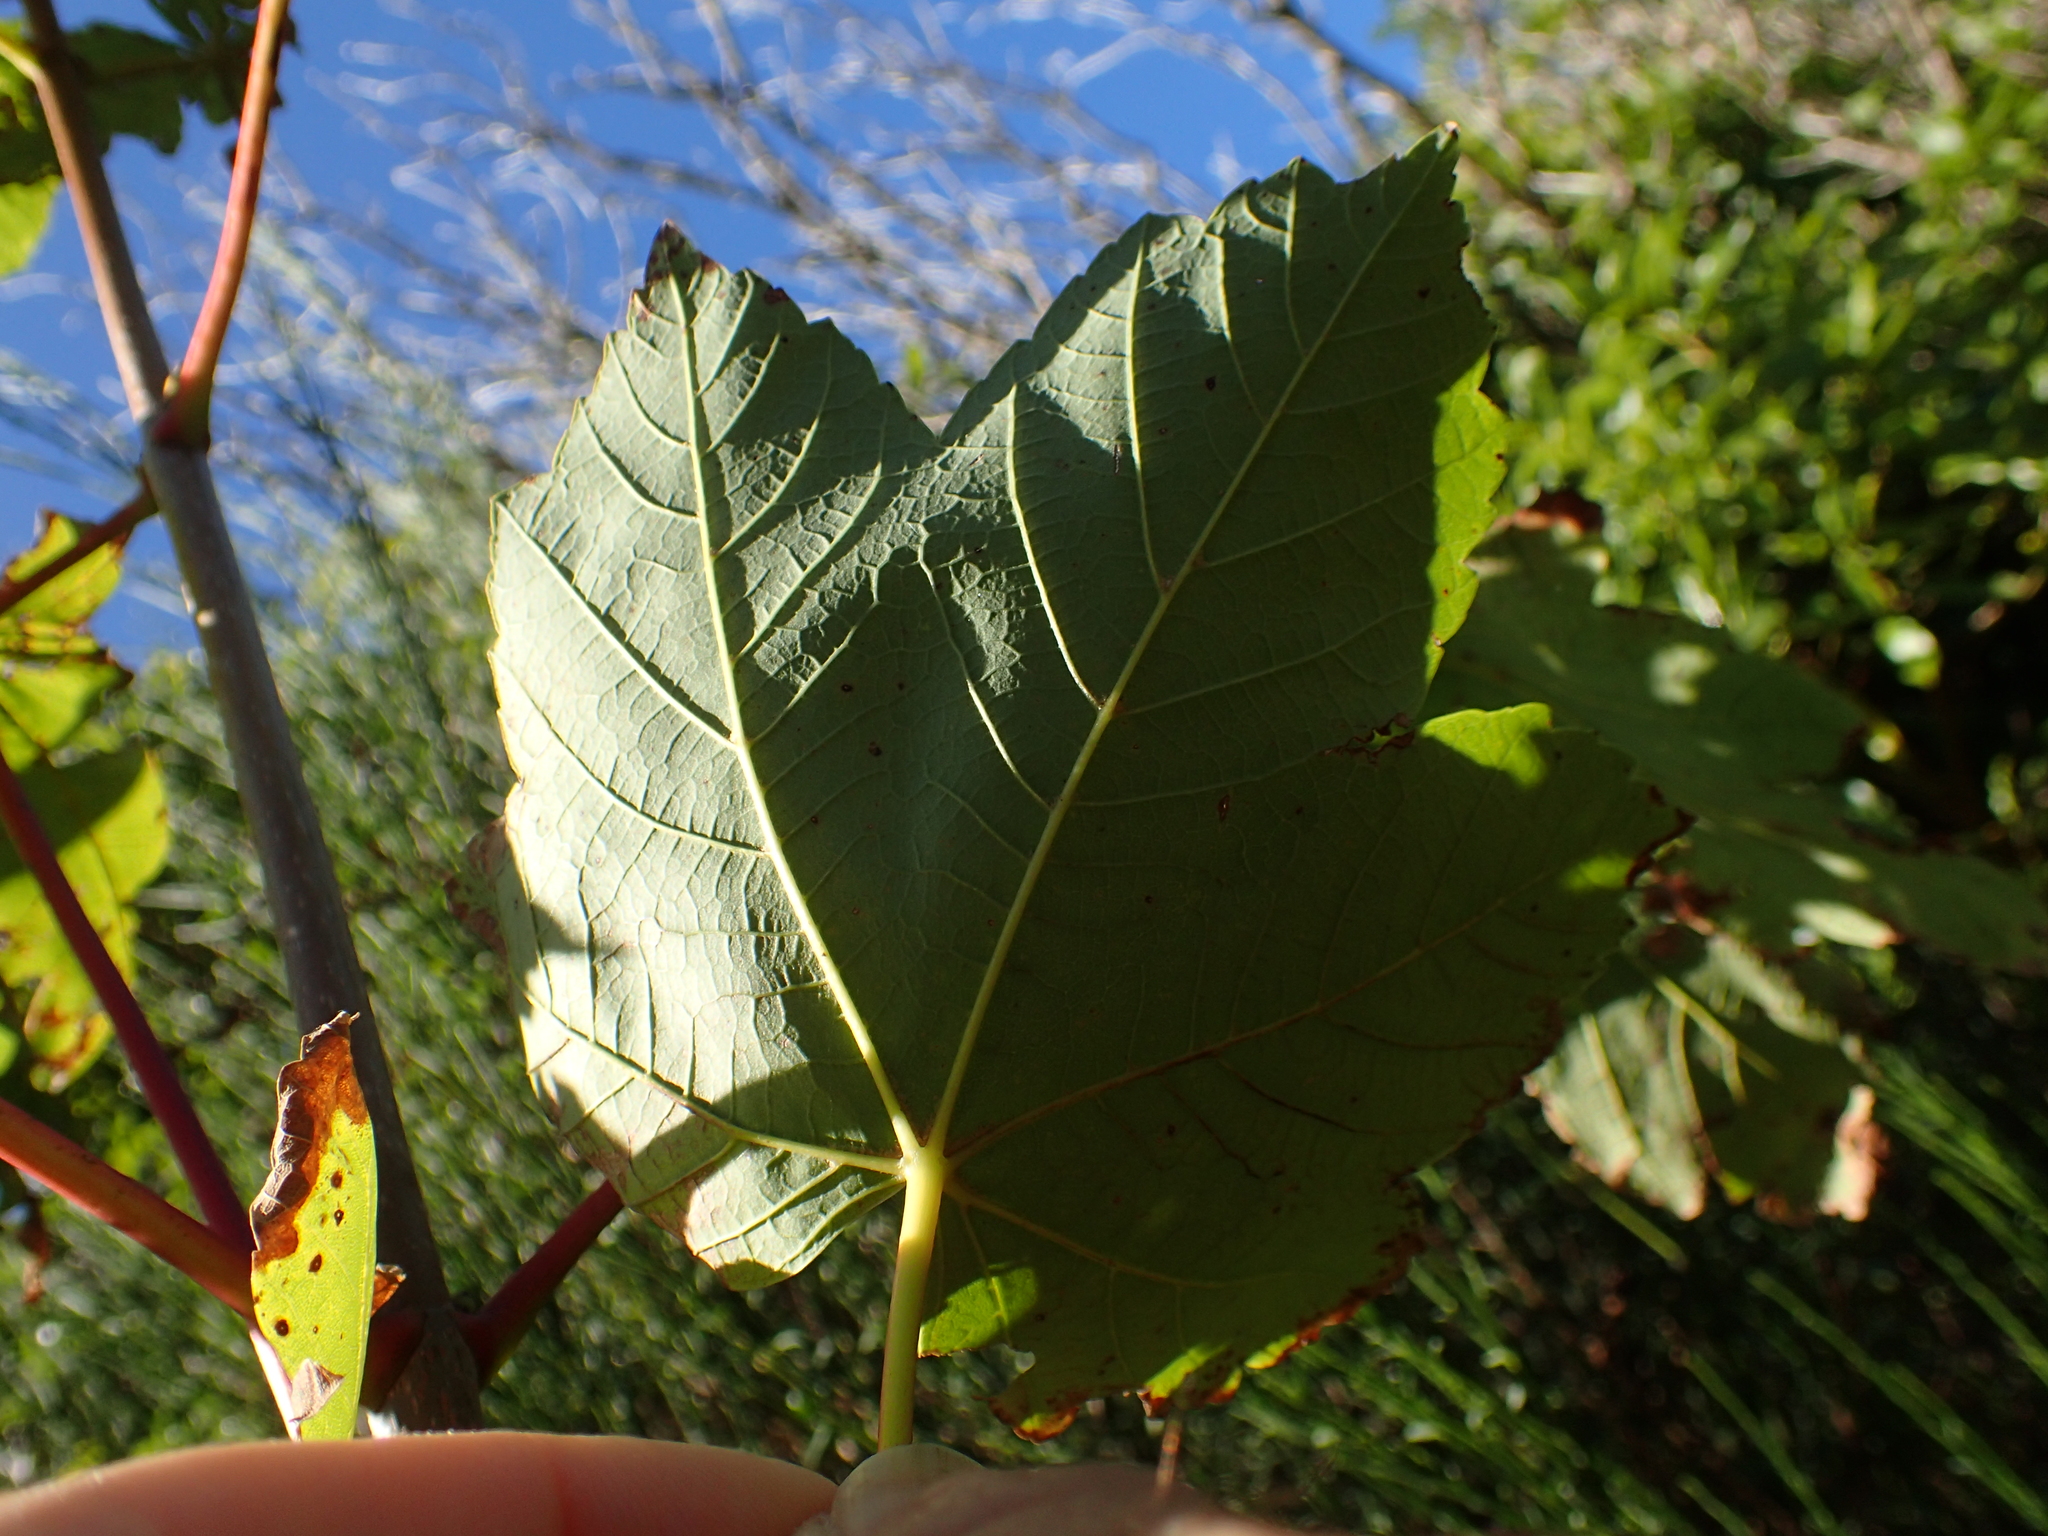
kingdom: Plantae
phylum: Tracheophyta
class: Magnoliopsida
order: Sapindales
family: Sapindaceae
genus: Acer
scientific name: Acer pseudoplatanus
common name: Sycamore
